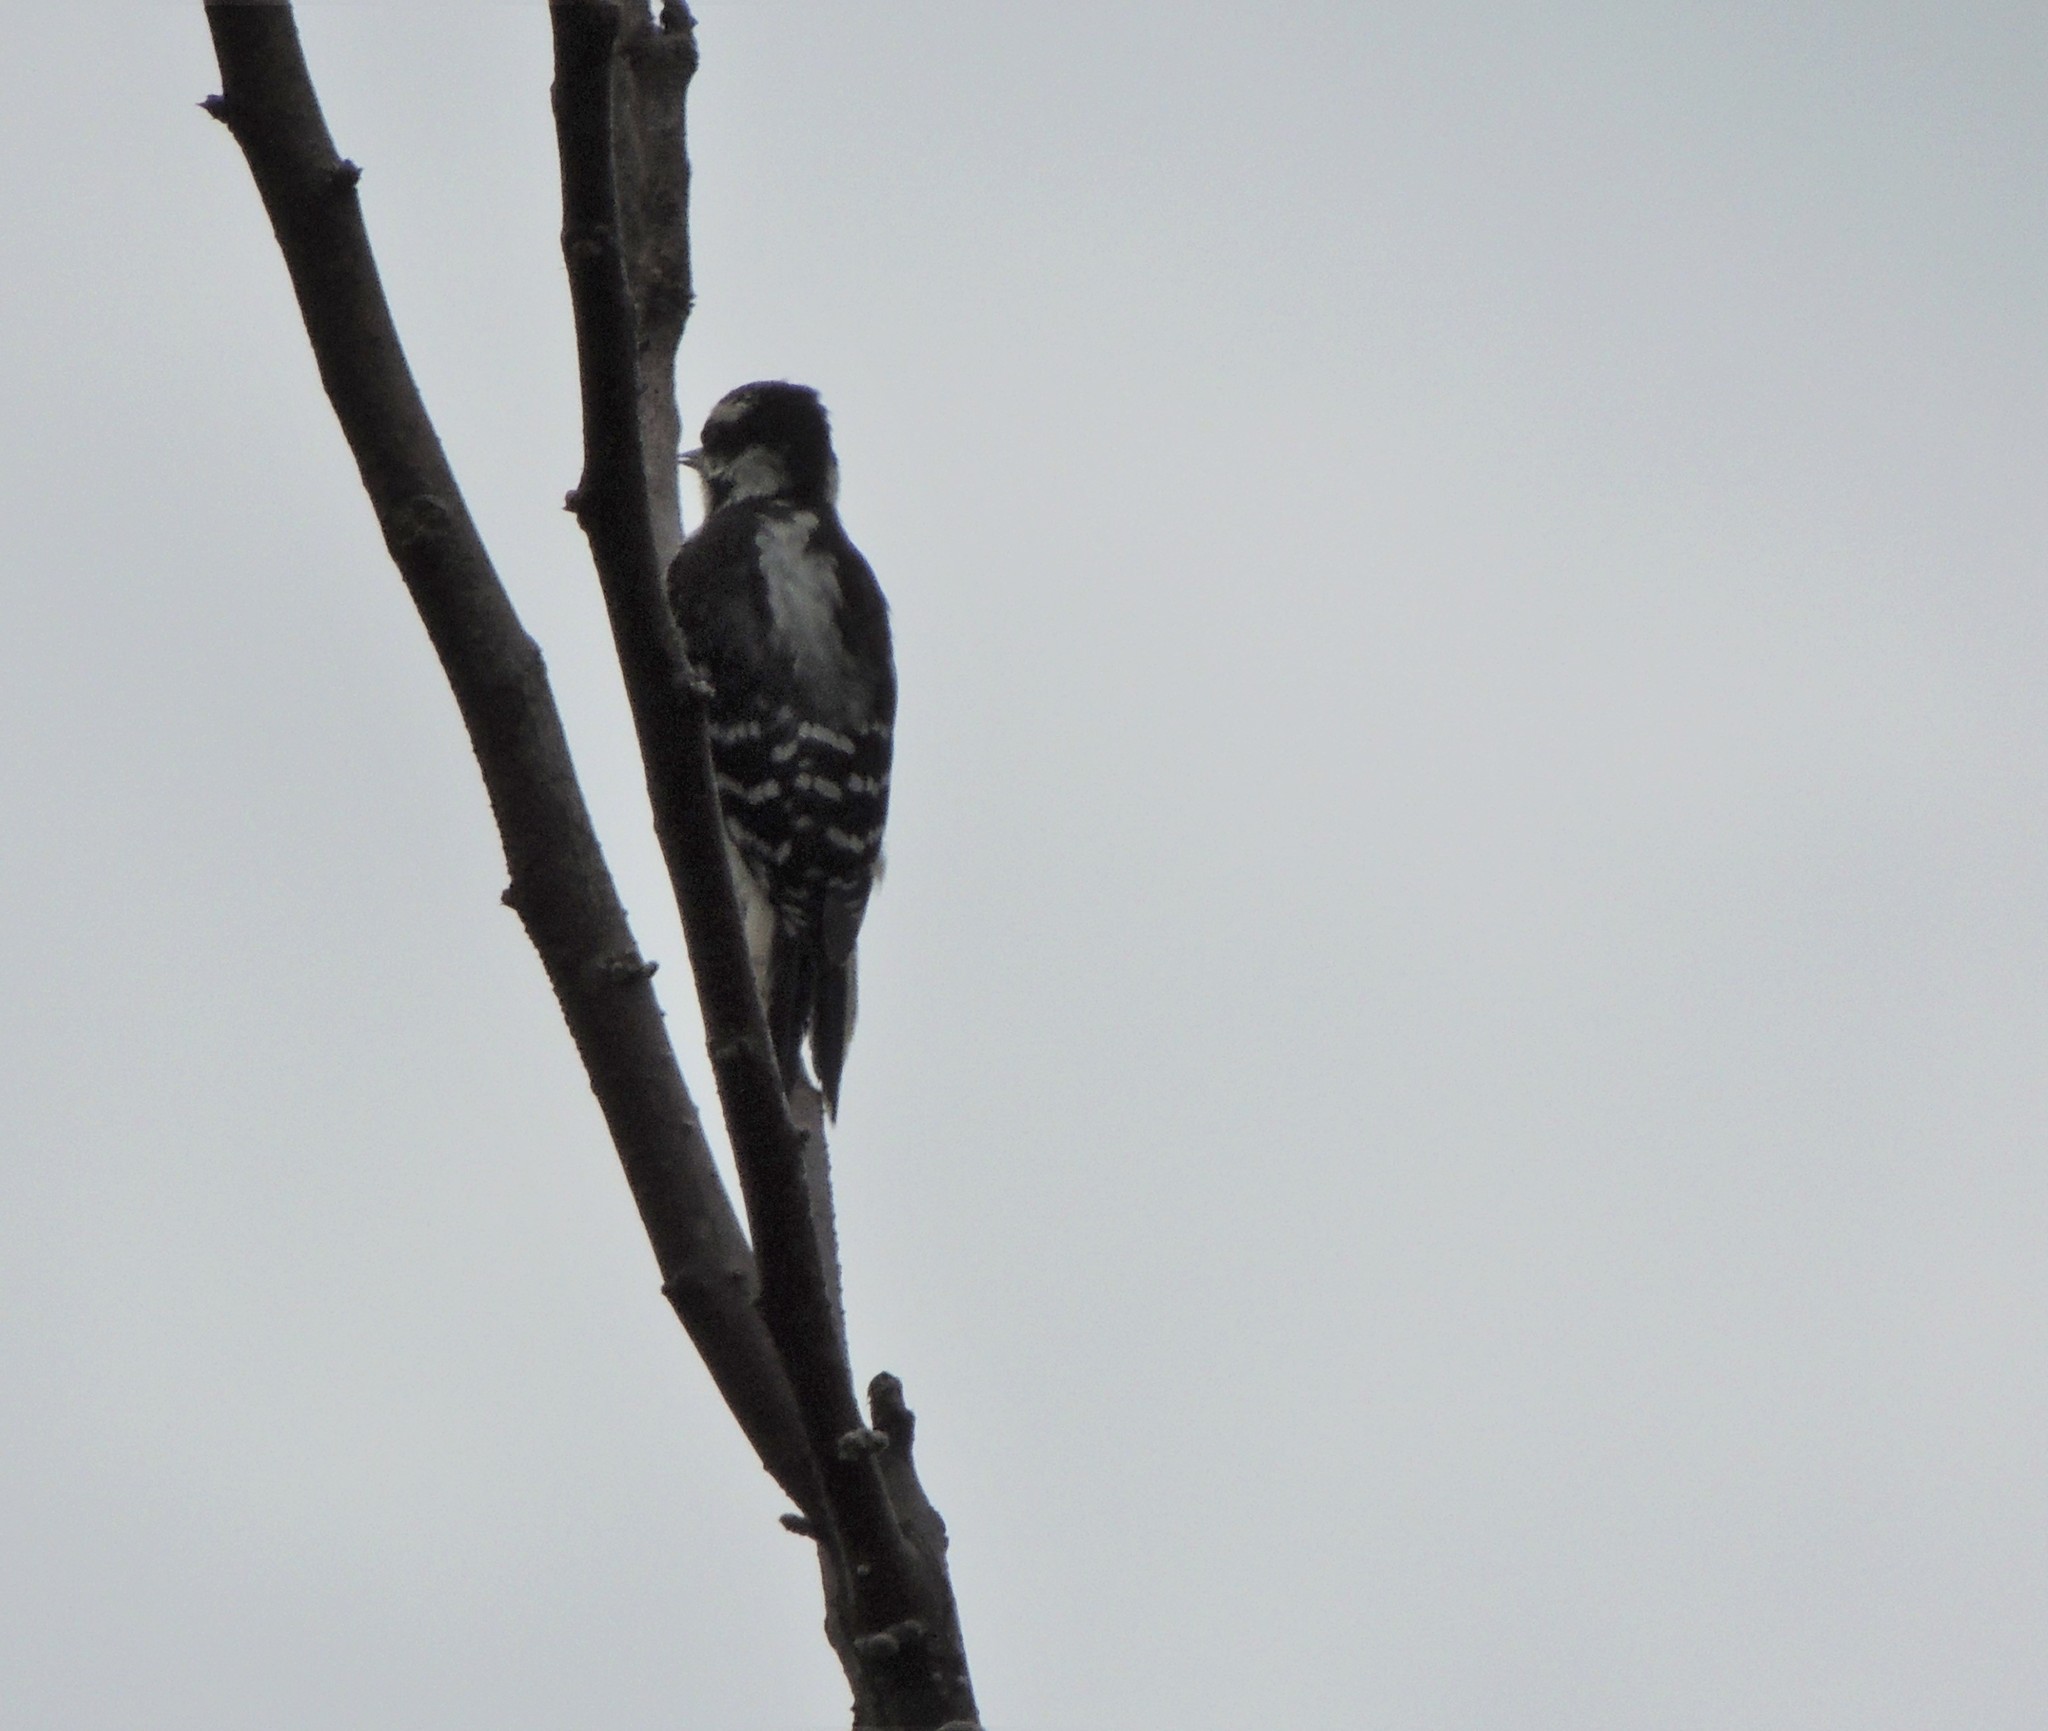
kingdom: Animalia
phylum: Chordata
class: Aves
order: Piciformes
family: Picidae
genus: Dryobates
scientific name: Dryobates pubescens
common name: Downy woodpecker
